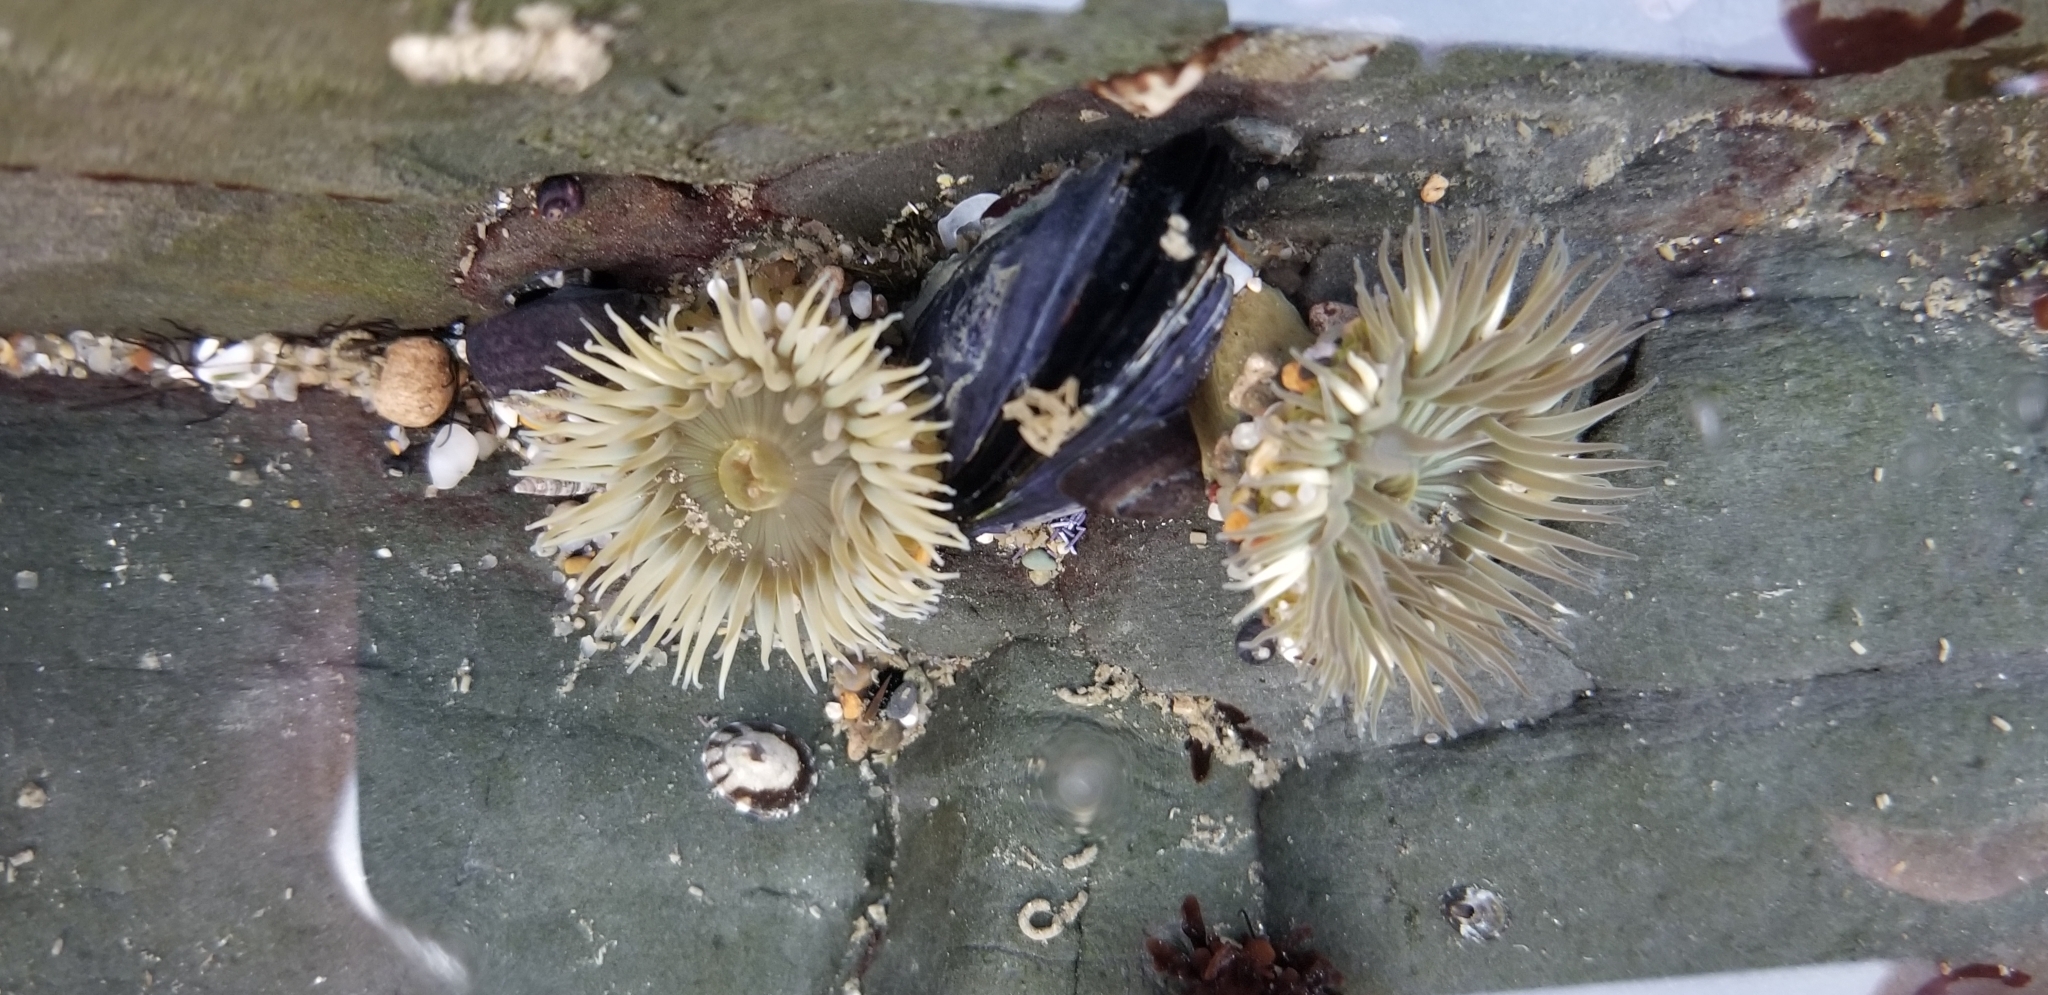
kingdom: Animalia
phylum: Cnidaria
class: Anthozoa
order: Actiniaria
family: Actiniidae
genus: Anthopleura
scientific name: Anthopleura elegantissima
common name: Clonal anemone
